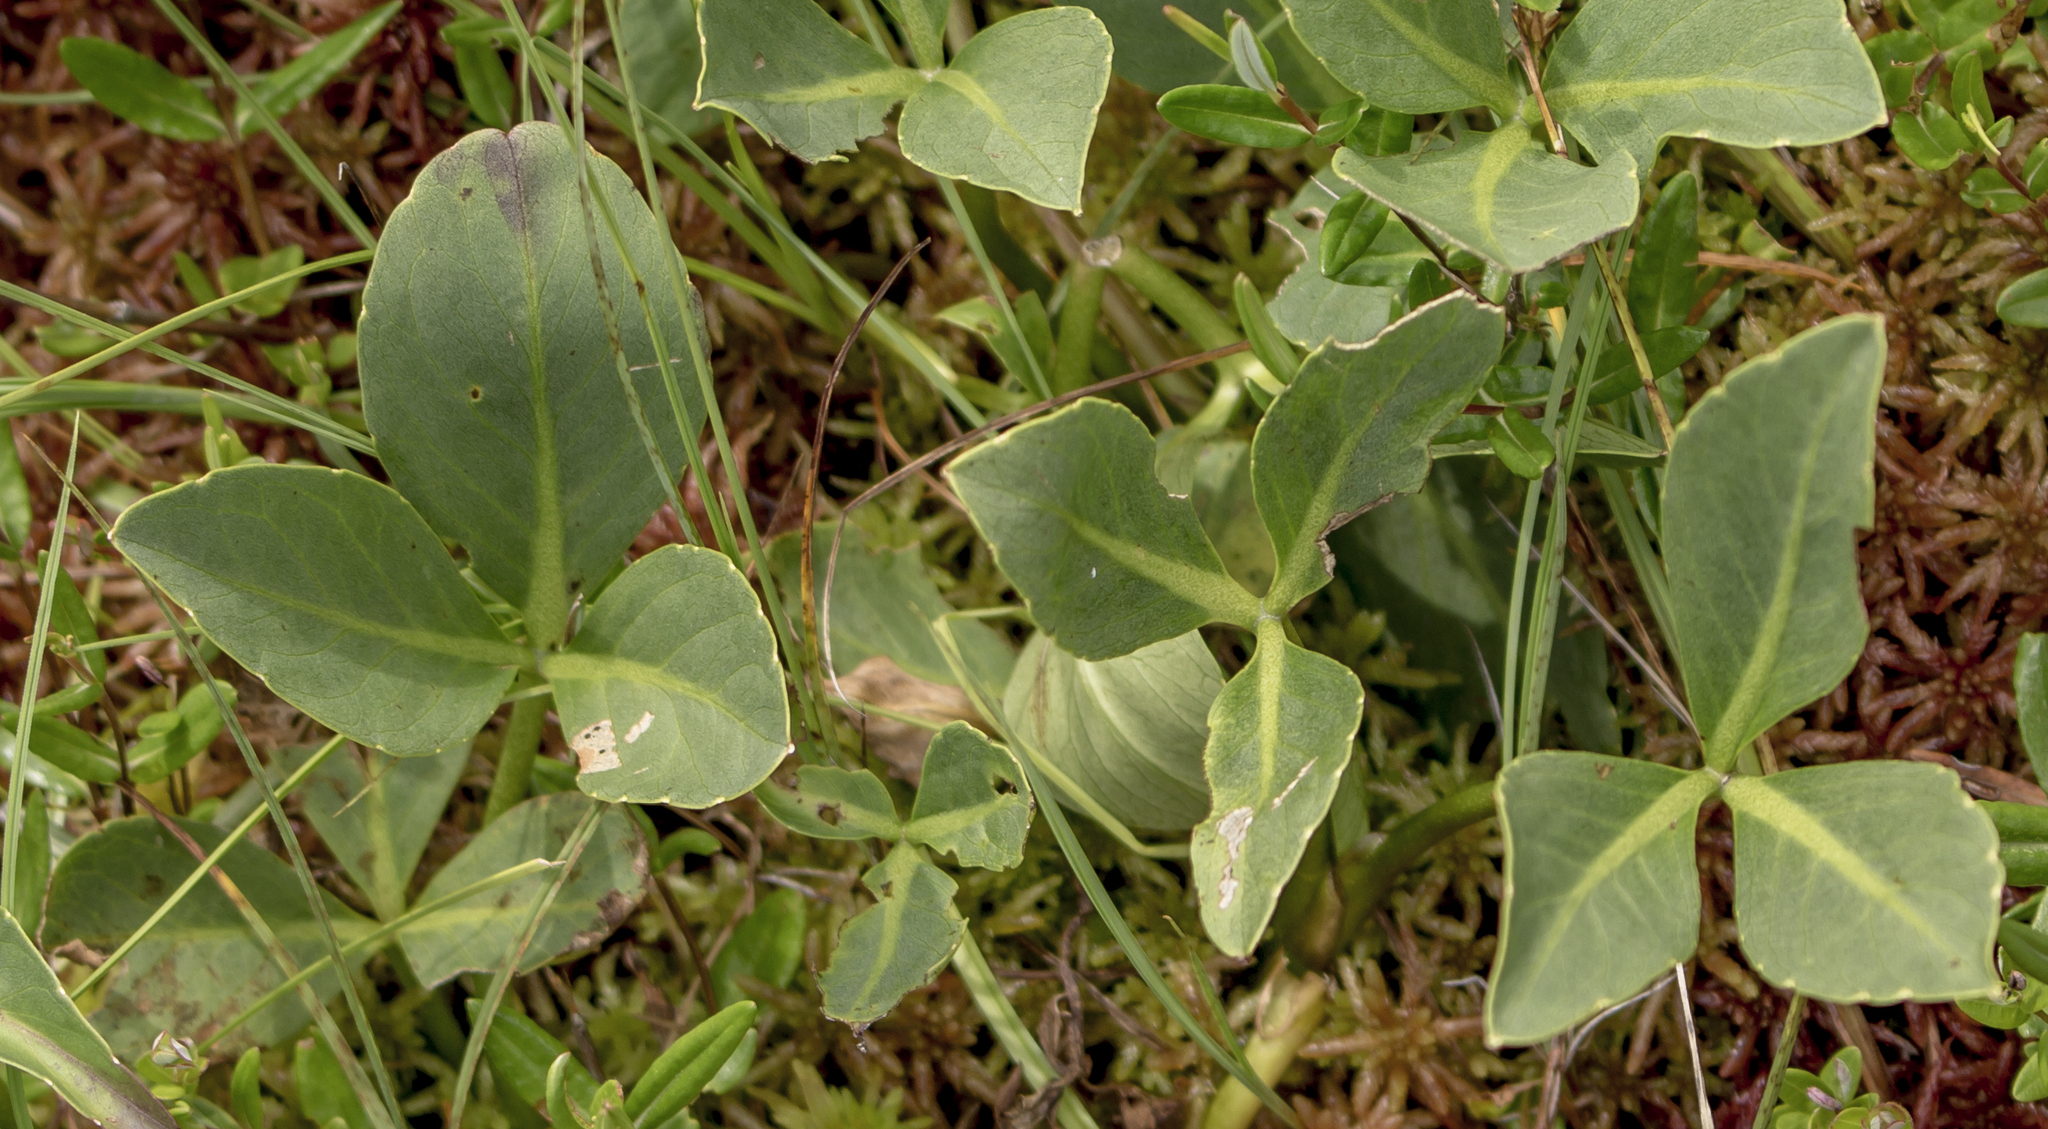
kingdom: Plantae
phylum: Tracheophyta
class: Magnoliopsida
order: Asterales
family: Menyanthaceae
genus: Menyanthes
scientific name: Menyanthes trifoliata
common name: Bogbean
